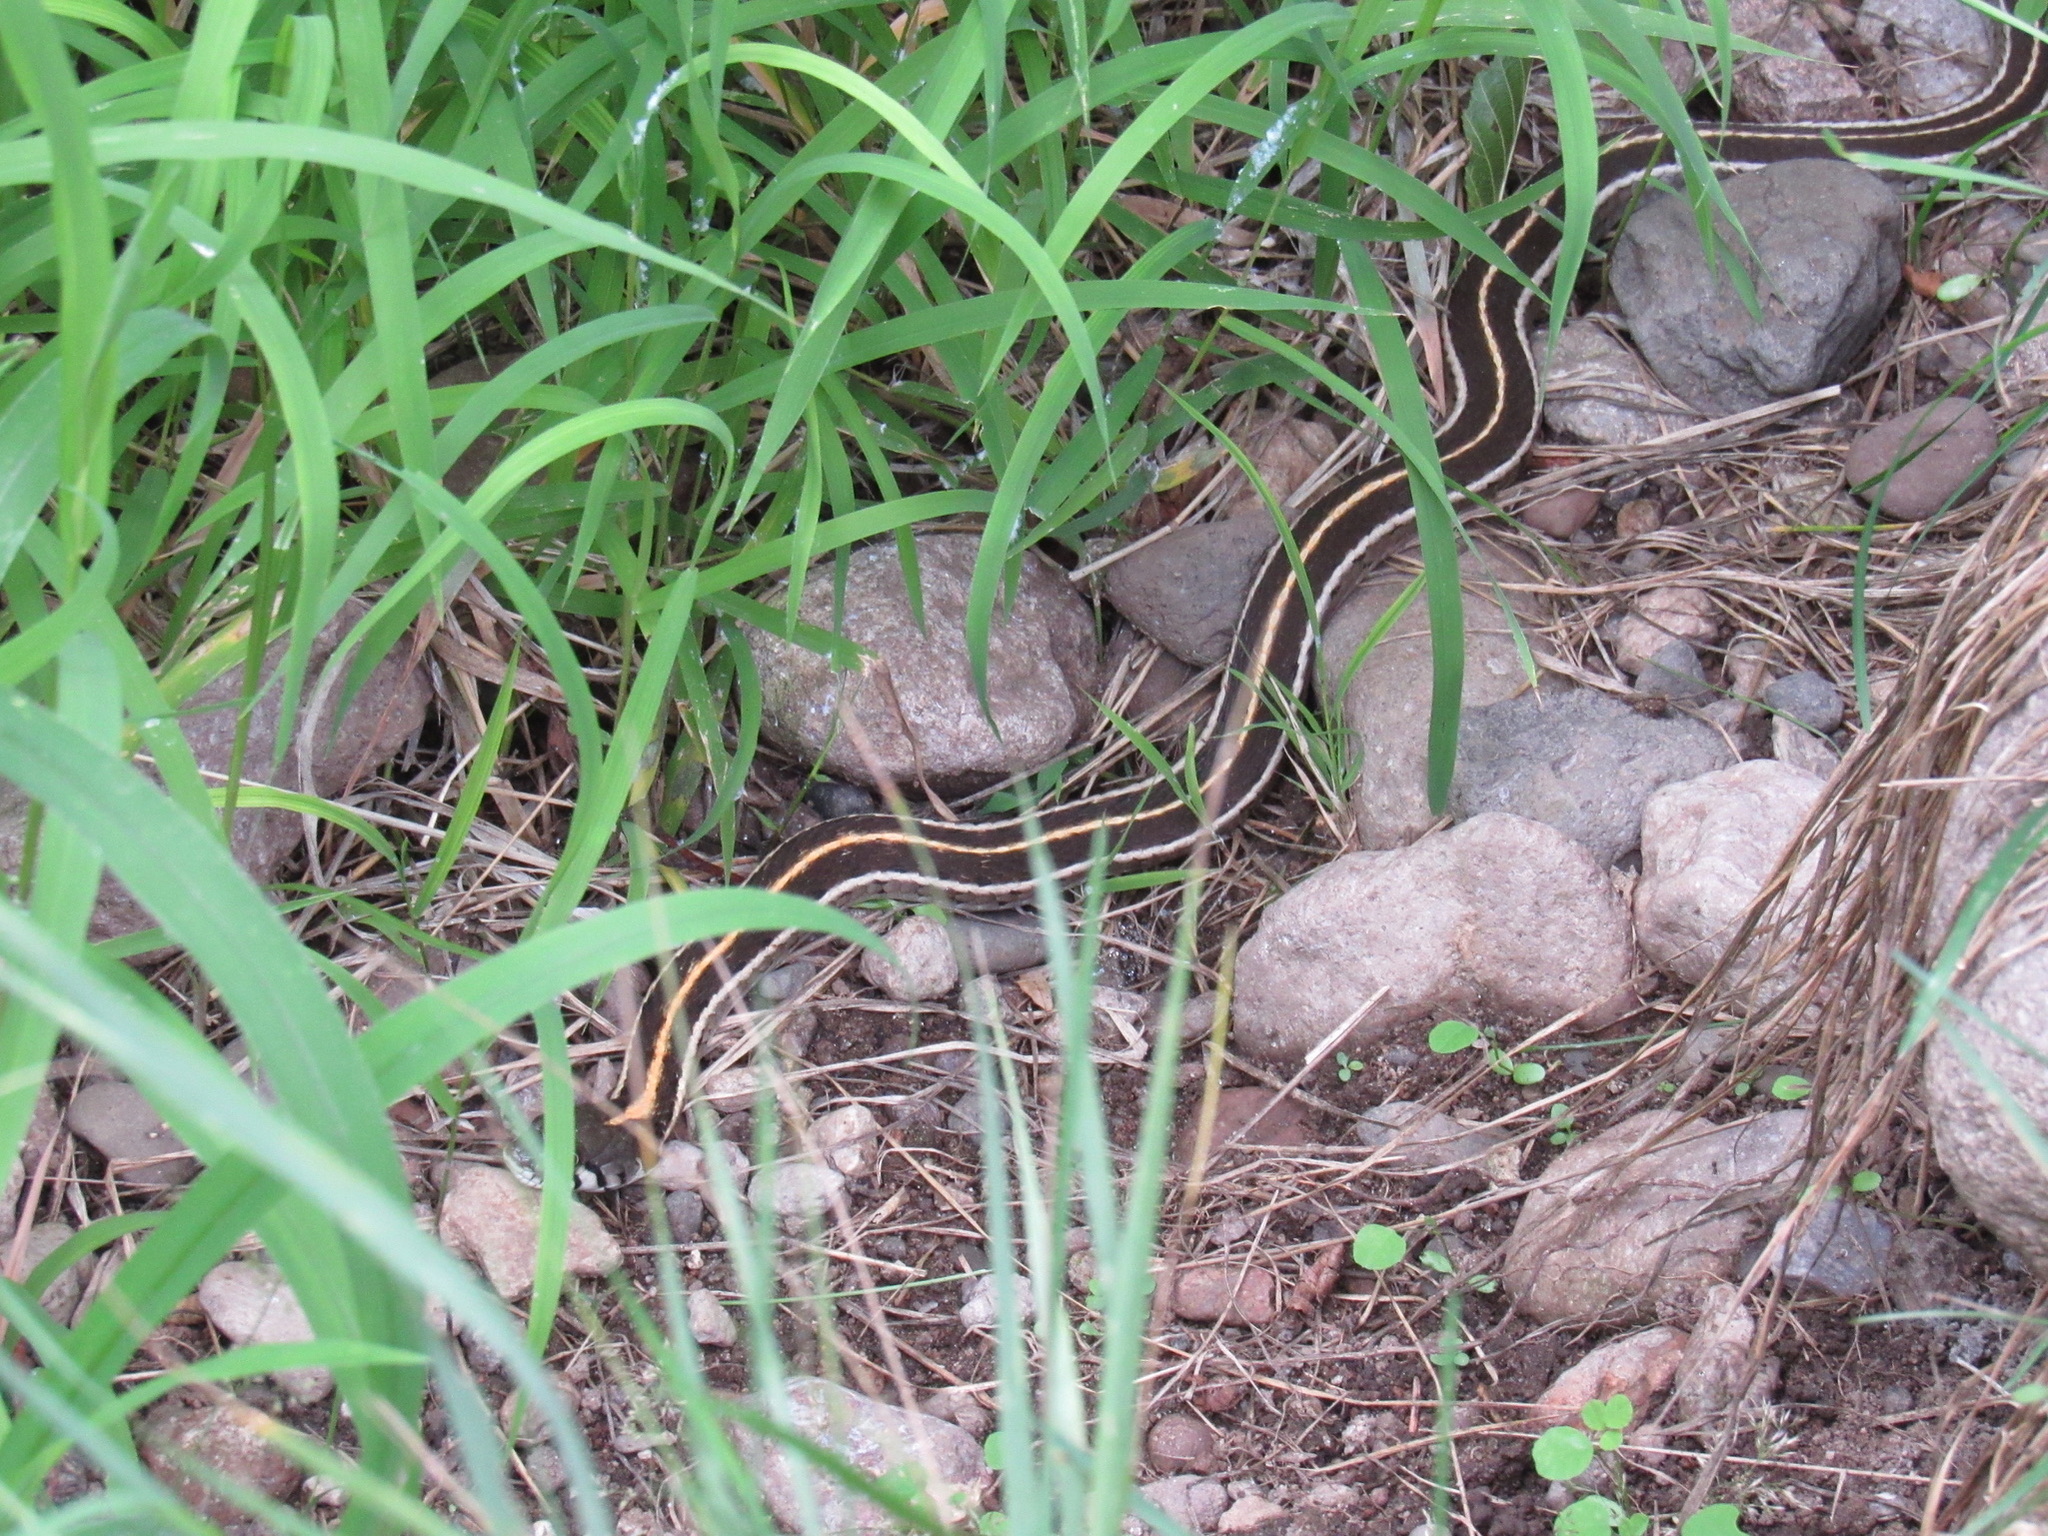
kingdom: Animalia
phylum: Chordata
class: Squamata
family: Colubridae
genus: Thamnophis
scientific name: Thamnophis cyrtopsis
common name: Black-necked gartersnake
